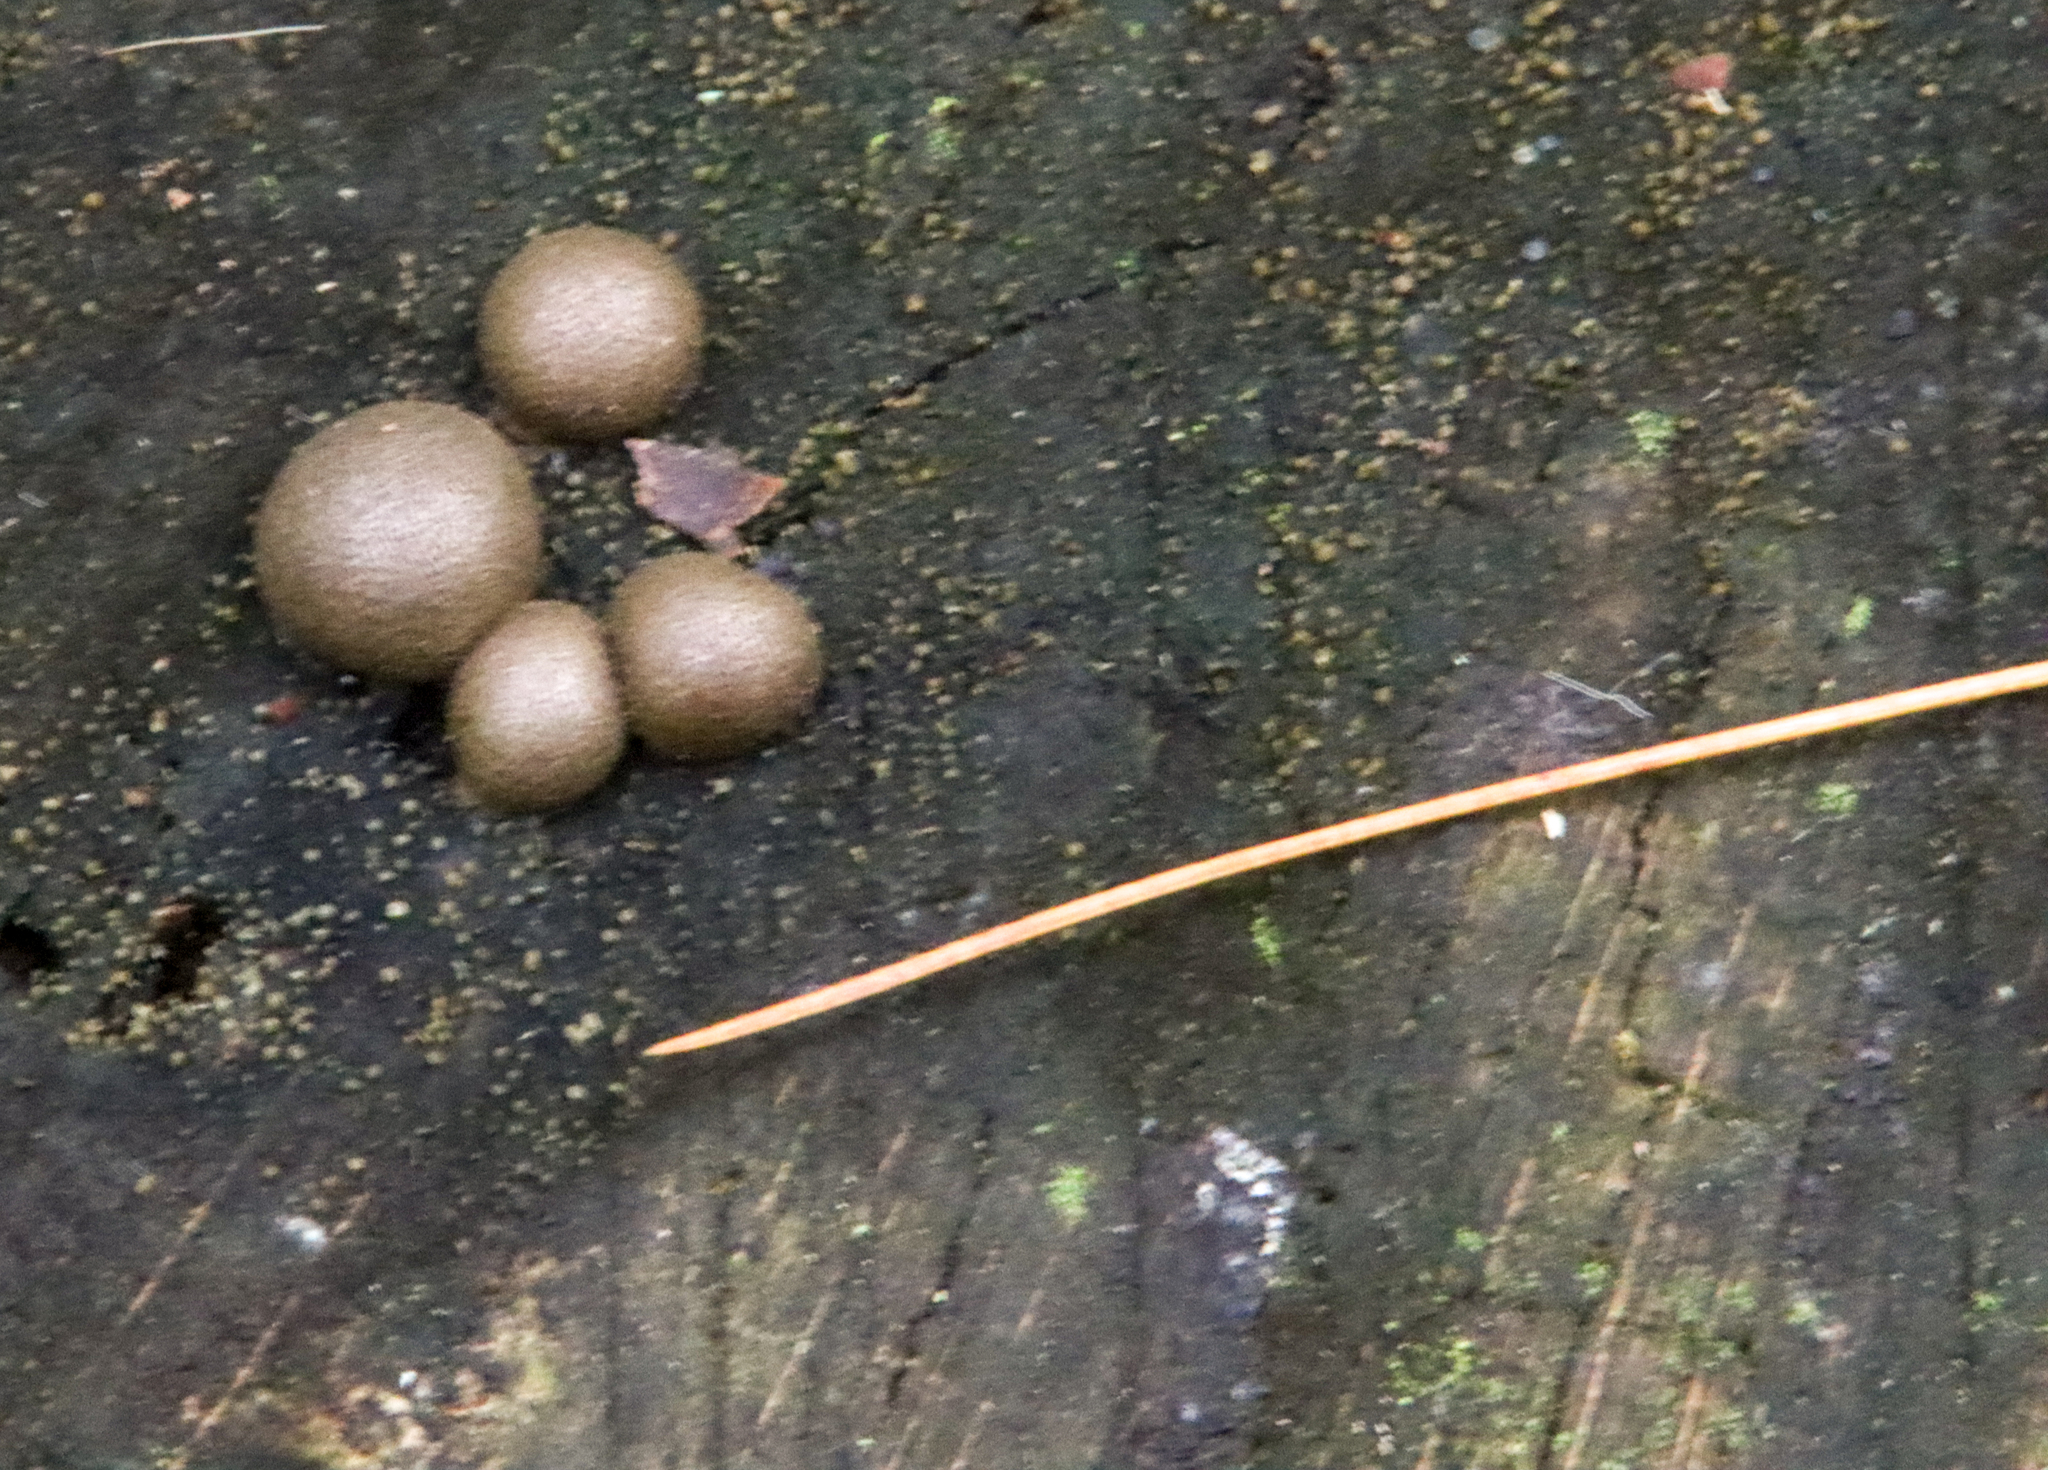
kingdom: Protozoa
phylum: Mycetozoa
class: Myxomycetes
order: Cribrariales
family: Tubiferaceae
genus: Lycogala
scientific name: Lycogala epidendrum
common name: Wolf's milk
